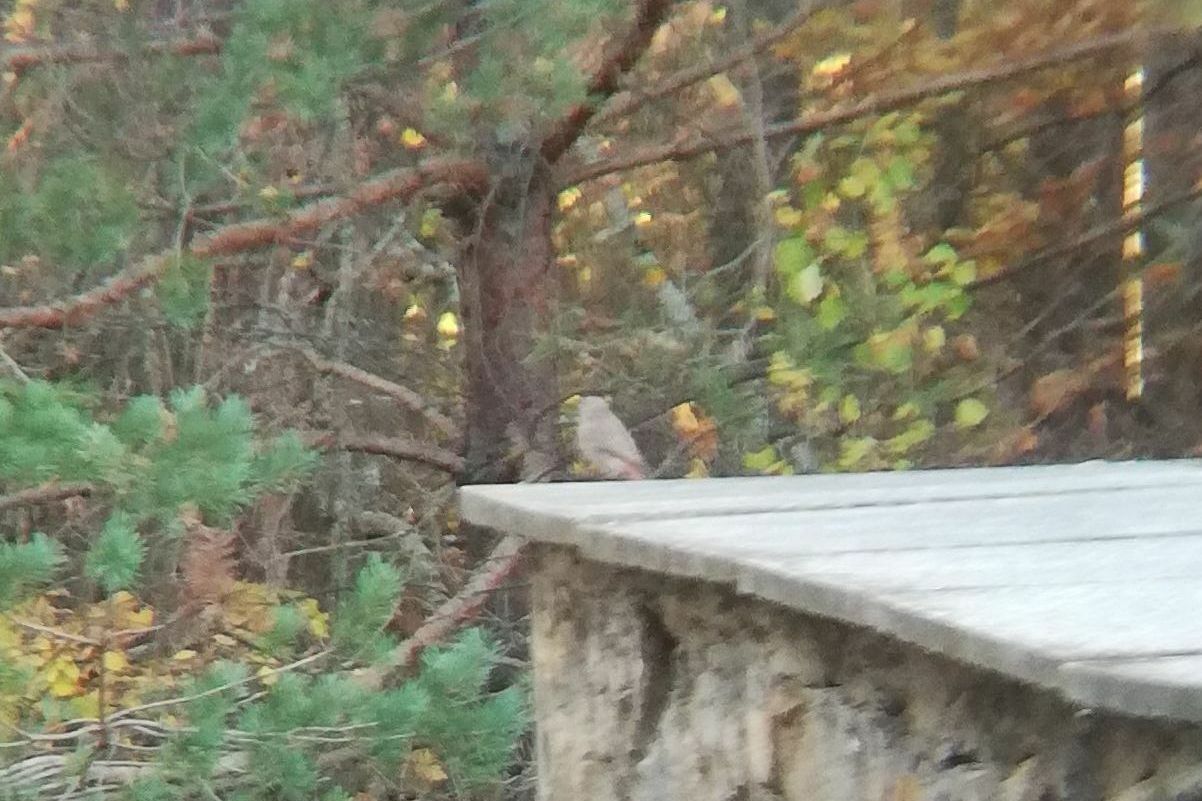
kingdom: Animalia
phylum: Chordata
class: Aves
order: Passeriformes
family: Muscicapidae
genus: Phoenicurus
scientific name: Phoenicurus ochruros
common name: Black redstart
